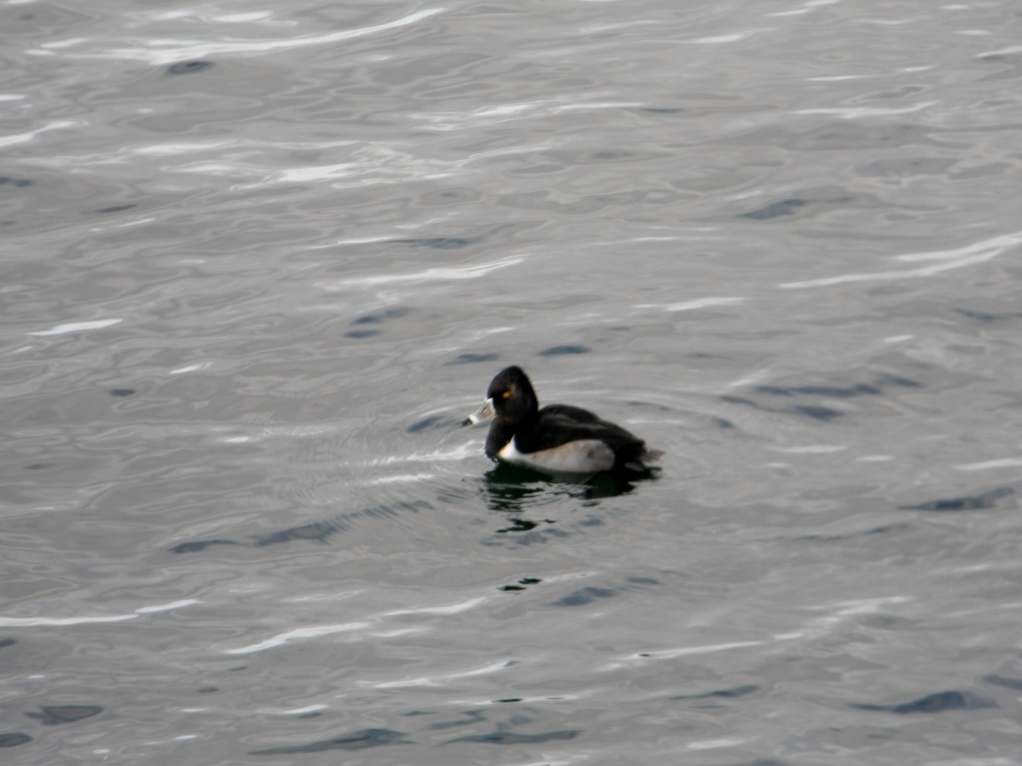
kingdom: Animalia
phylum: Chordata
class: Aves
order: Anseriformes
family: Anatidae
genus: Aythya
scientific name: Aythya collaris
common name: Ring-necked duck
